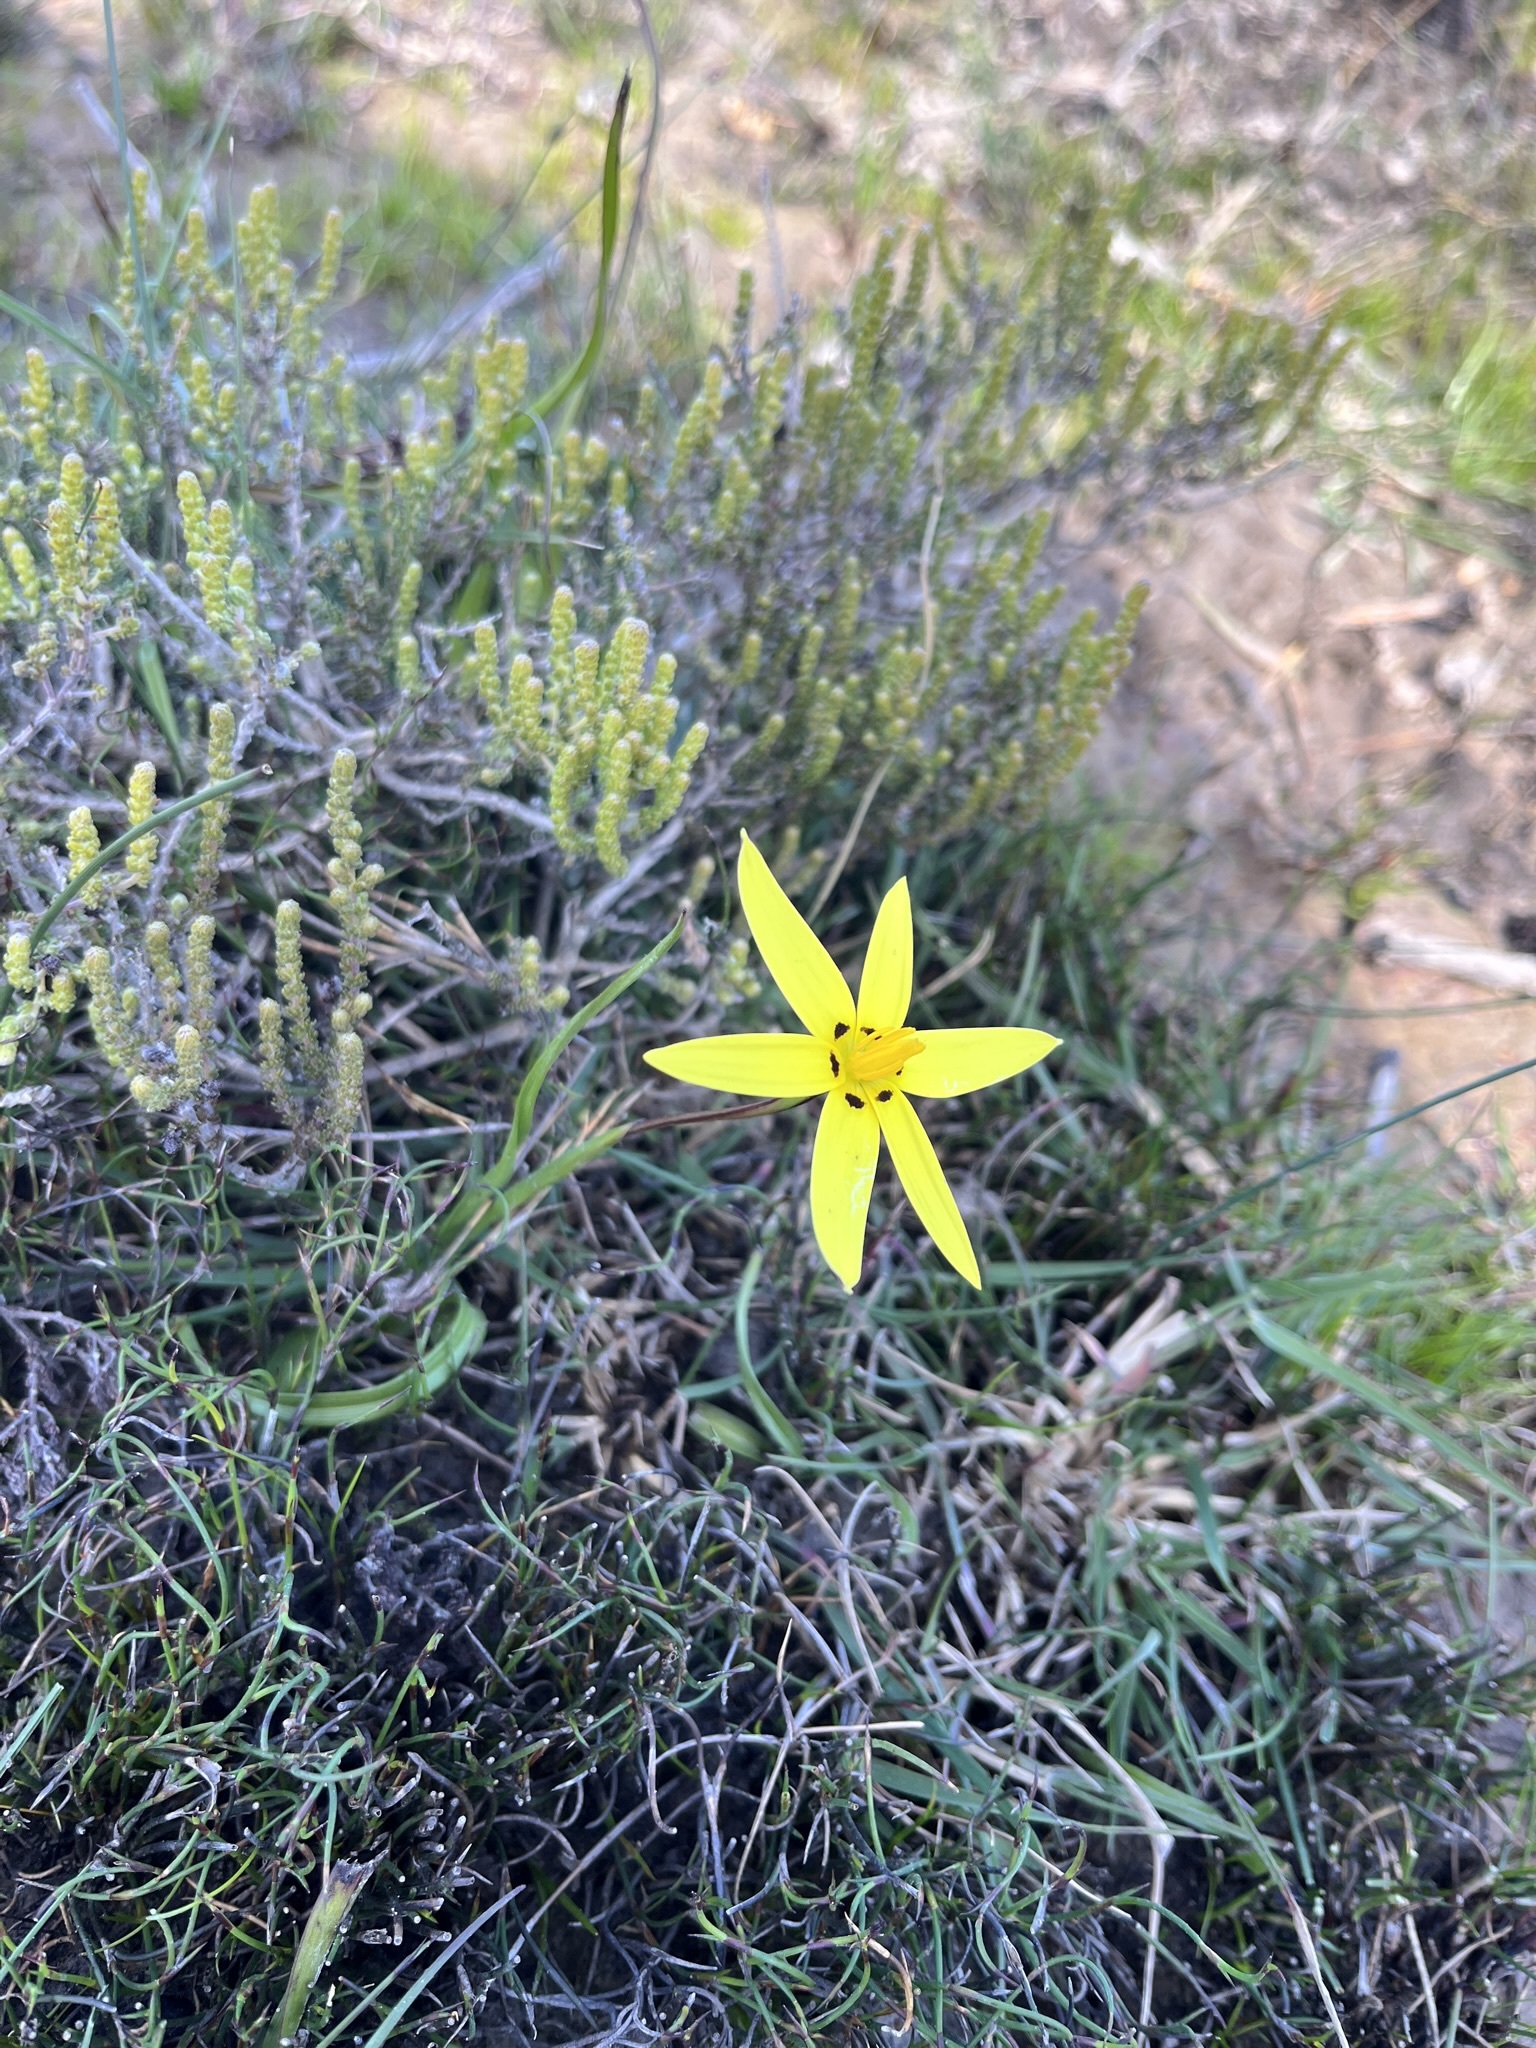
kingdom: Plantae
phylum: Tracheophyta
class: Liliopsida
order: Asparagales
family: Hypoxidaceae
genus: Pauridia
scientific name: Pauridia capensis
